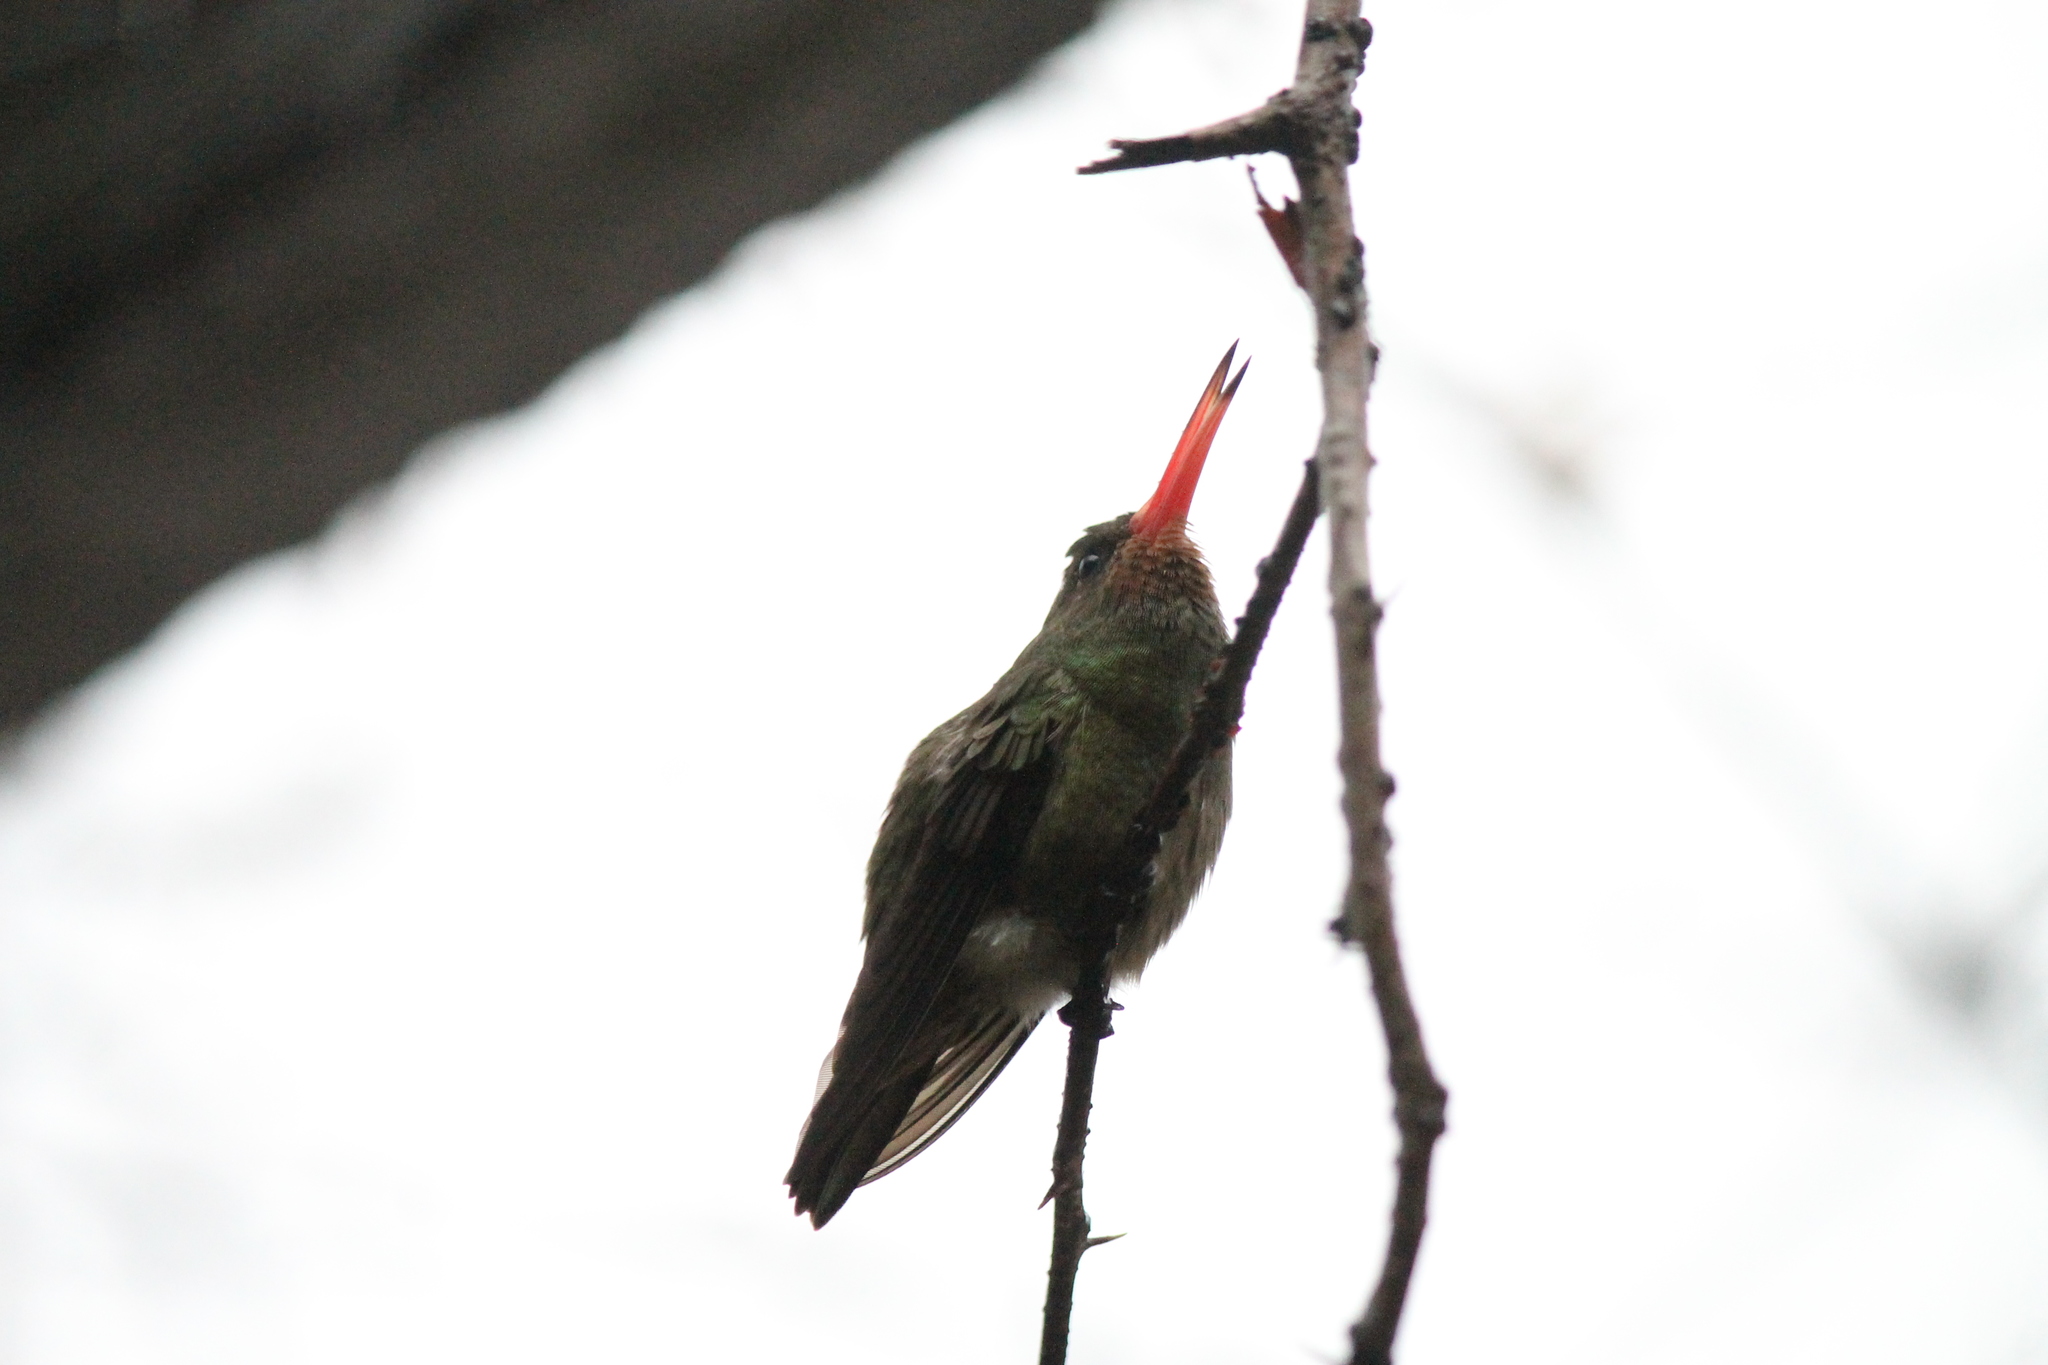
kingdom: Animalia
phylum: Chordata
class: Aves
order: Apodiformes
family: Trochilidae
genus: Chlorostilbon
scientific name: Chlorostilbon lucidus
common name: Glittering-bellied emerald
